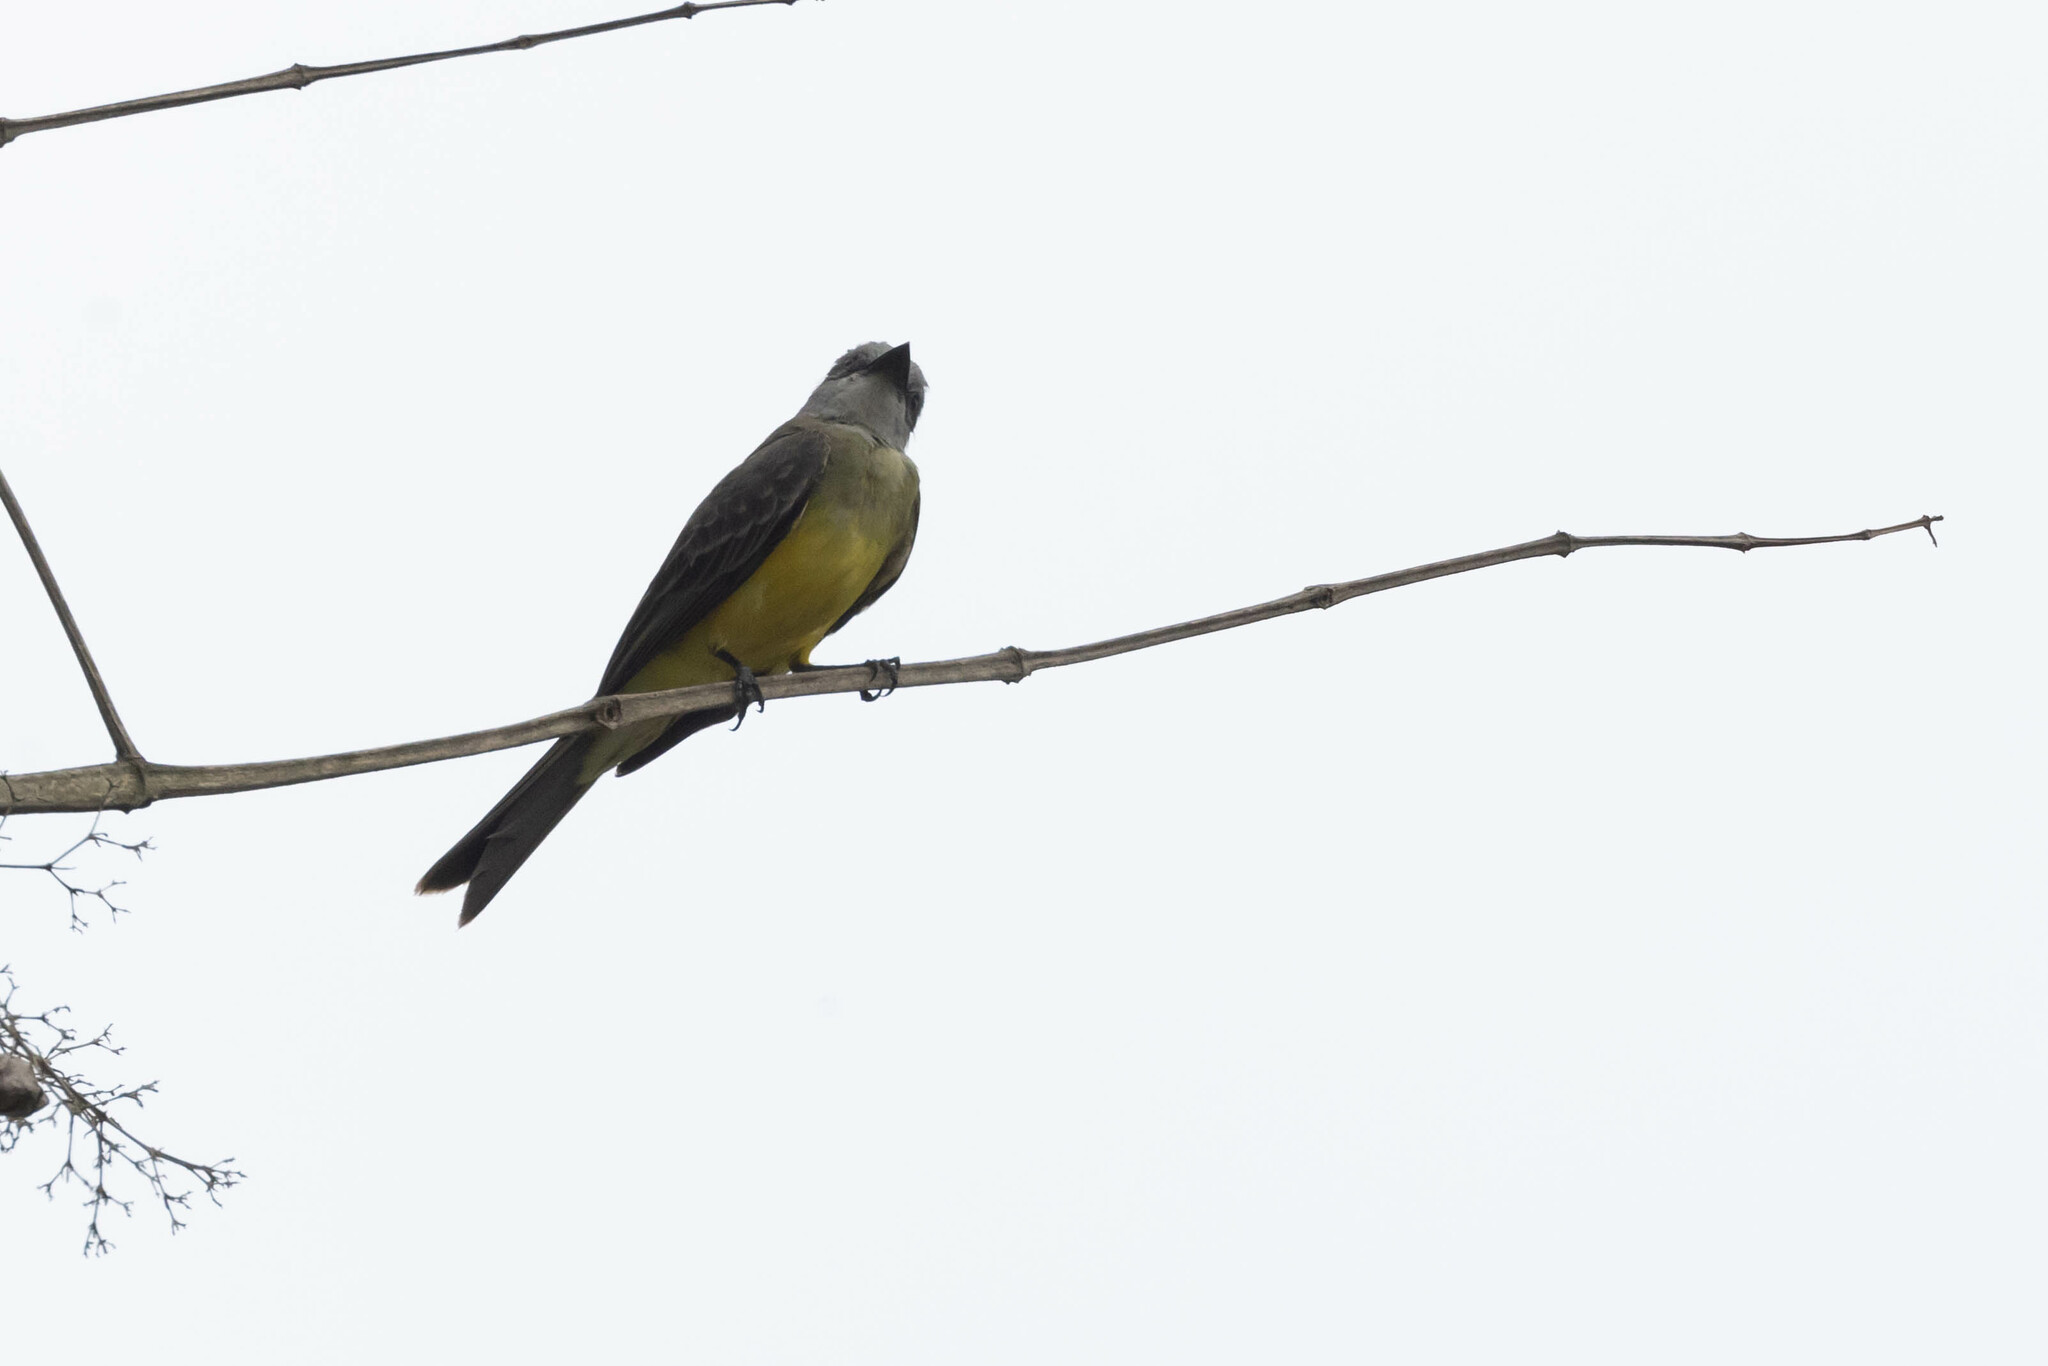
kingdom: Animalia
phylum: Chordata
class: Aves
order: Passeriformes
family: Tyrannidae
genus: Tyrannus
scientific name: Tyrannus melancholicus
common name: Tropical kingbird
